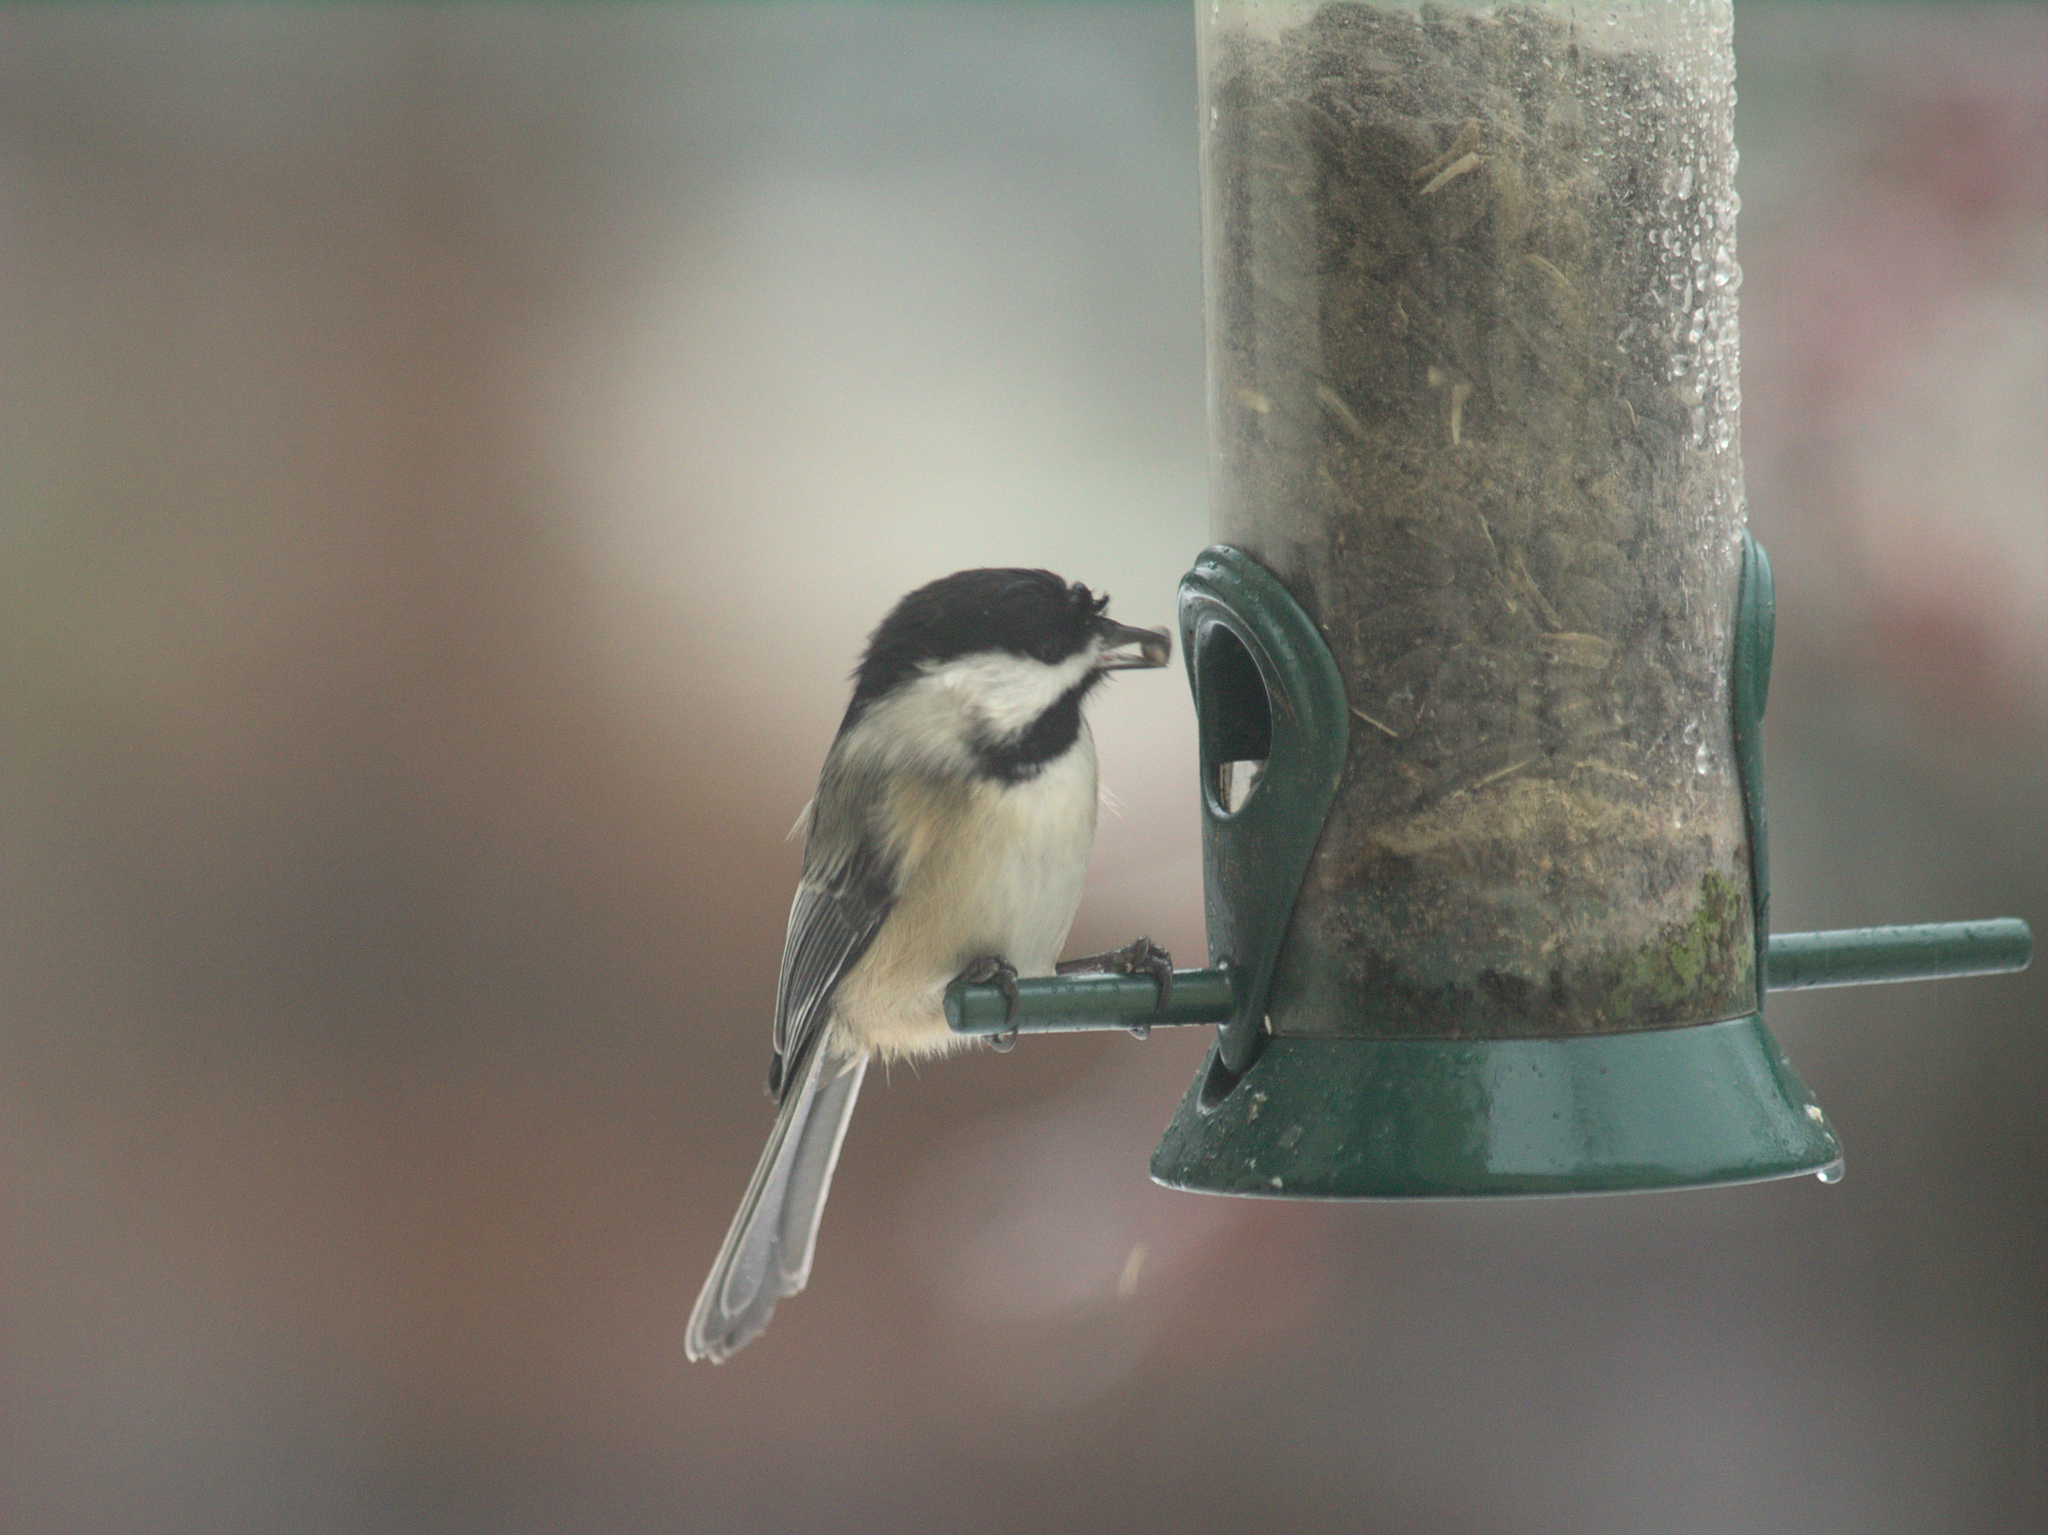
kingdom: Animalia
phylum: Chordata
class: Aves
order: Passeriformes
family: Paridae
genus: Poecile
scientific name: Poecile atricapillus
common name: Black-capped chickadee
